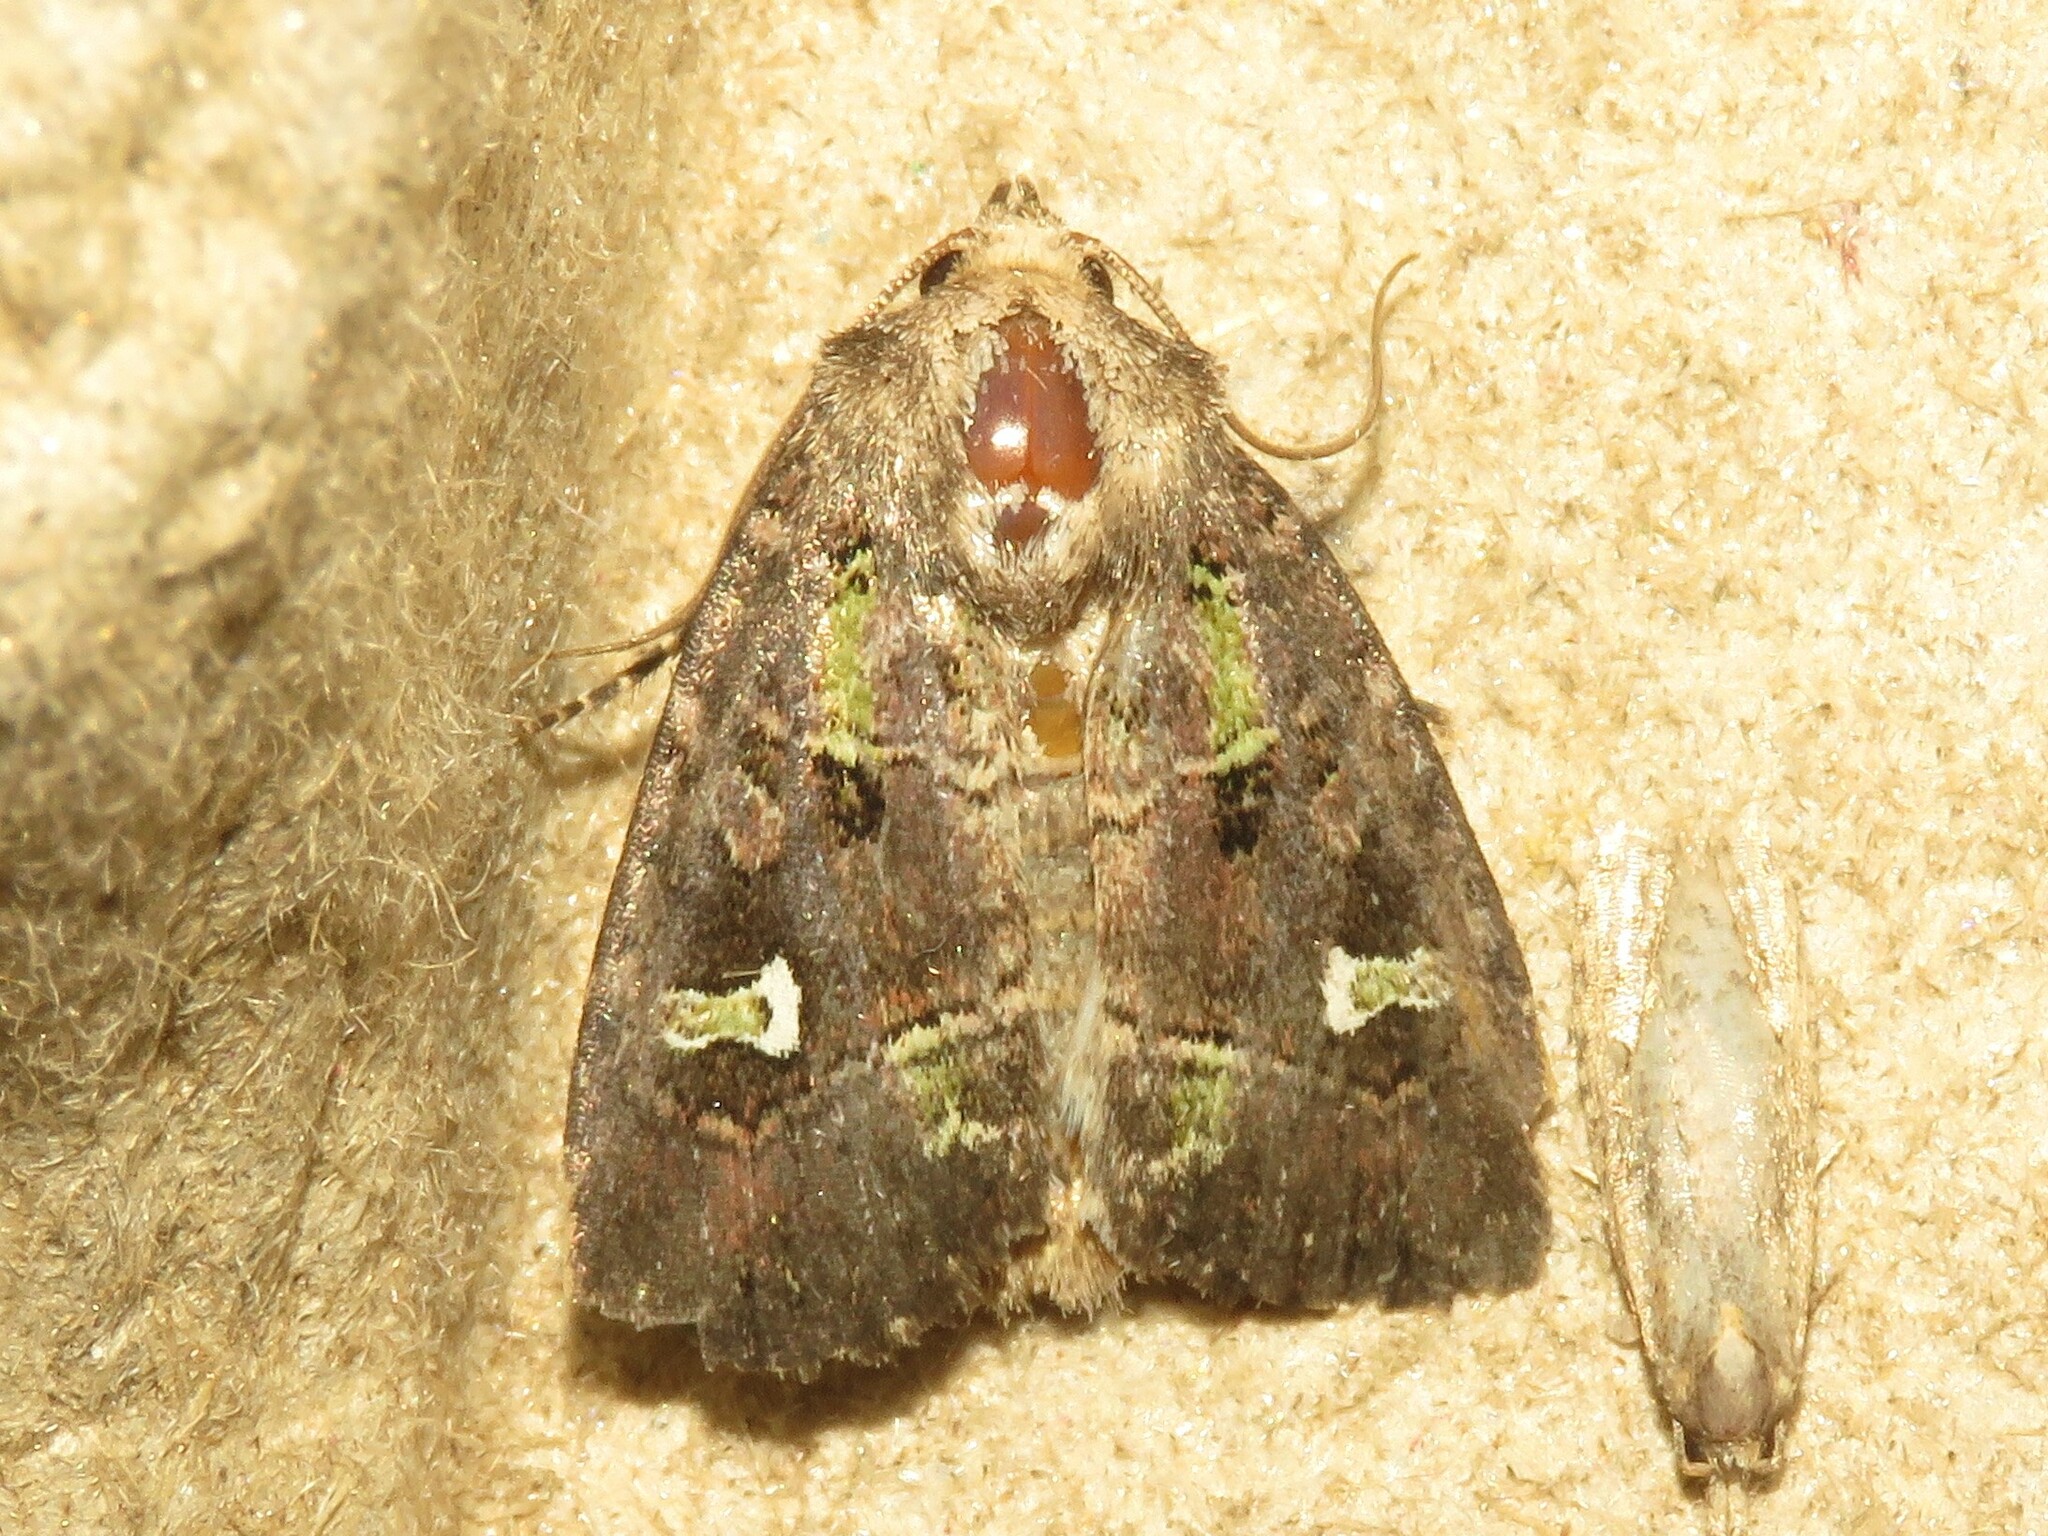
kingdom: Animalia
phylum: Arthropoda
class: Insecta
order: Lepidoptera
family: Noctuidae
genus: Lacinipolia
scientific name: Lacinipolia renigera
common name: Kidney-spotted minor
